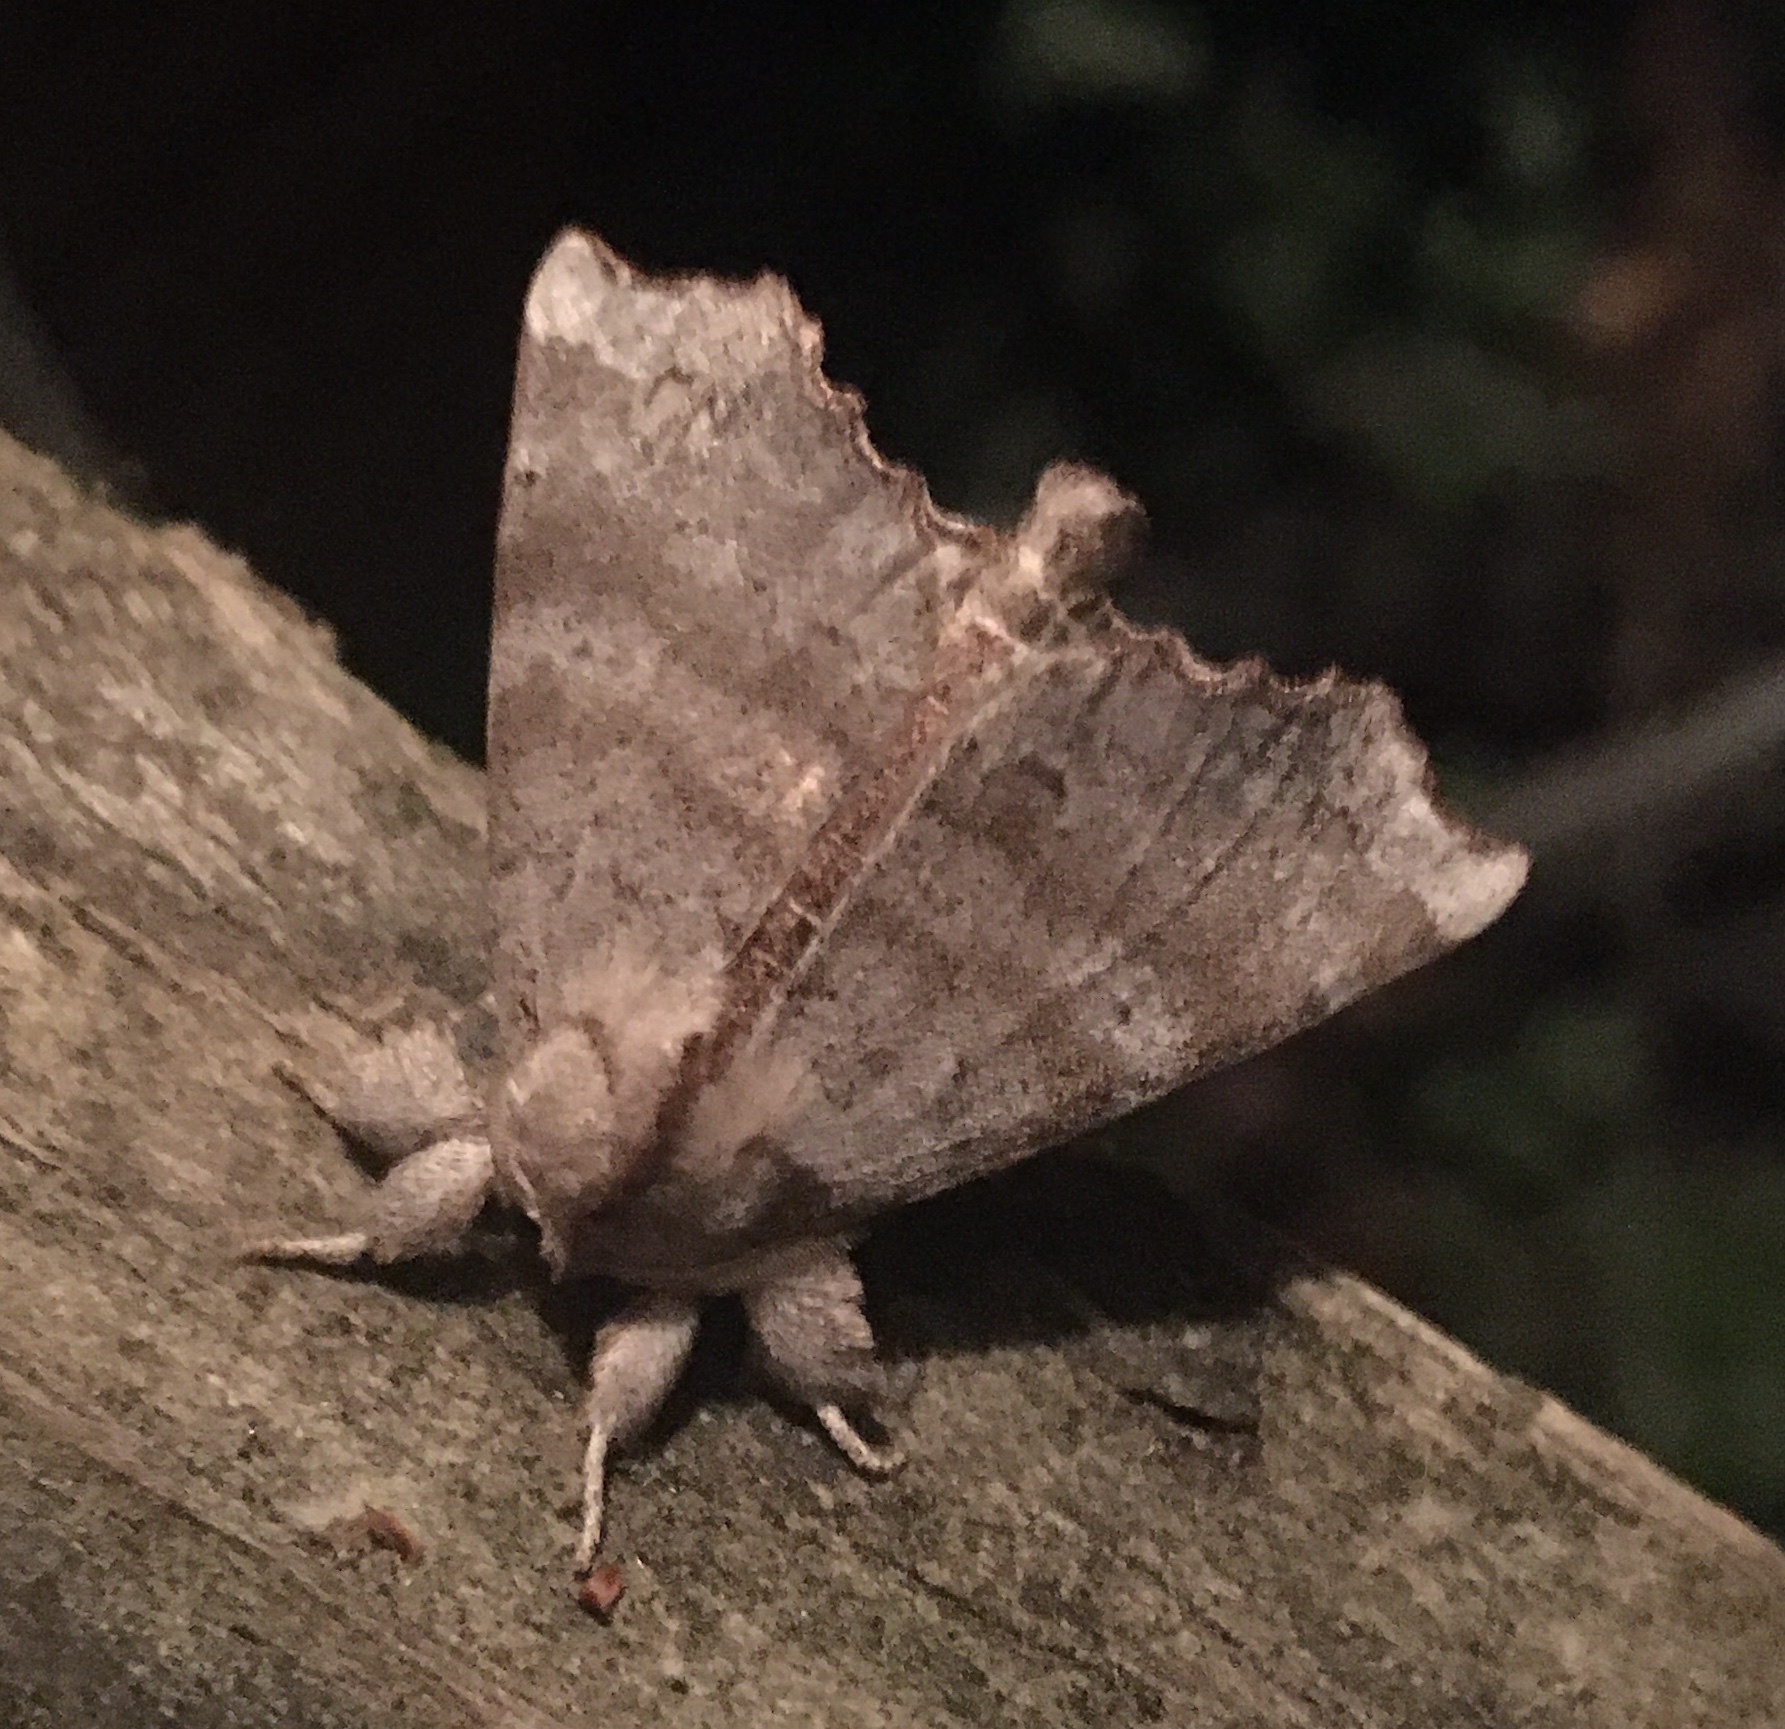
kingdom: Animalia
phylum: Arthropoda
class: Insecta
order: Lepidoptera
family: Apatelodidae
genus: Olceclostera
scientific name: Olceclostera angelica
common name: Angel moth
